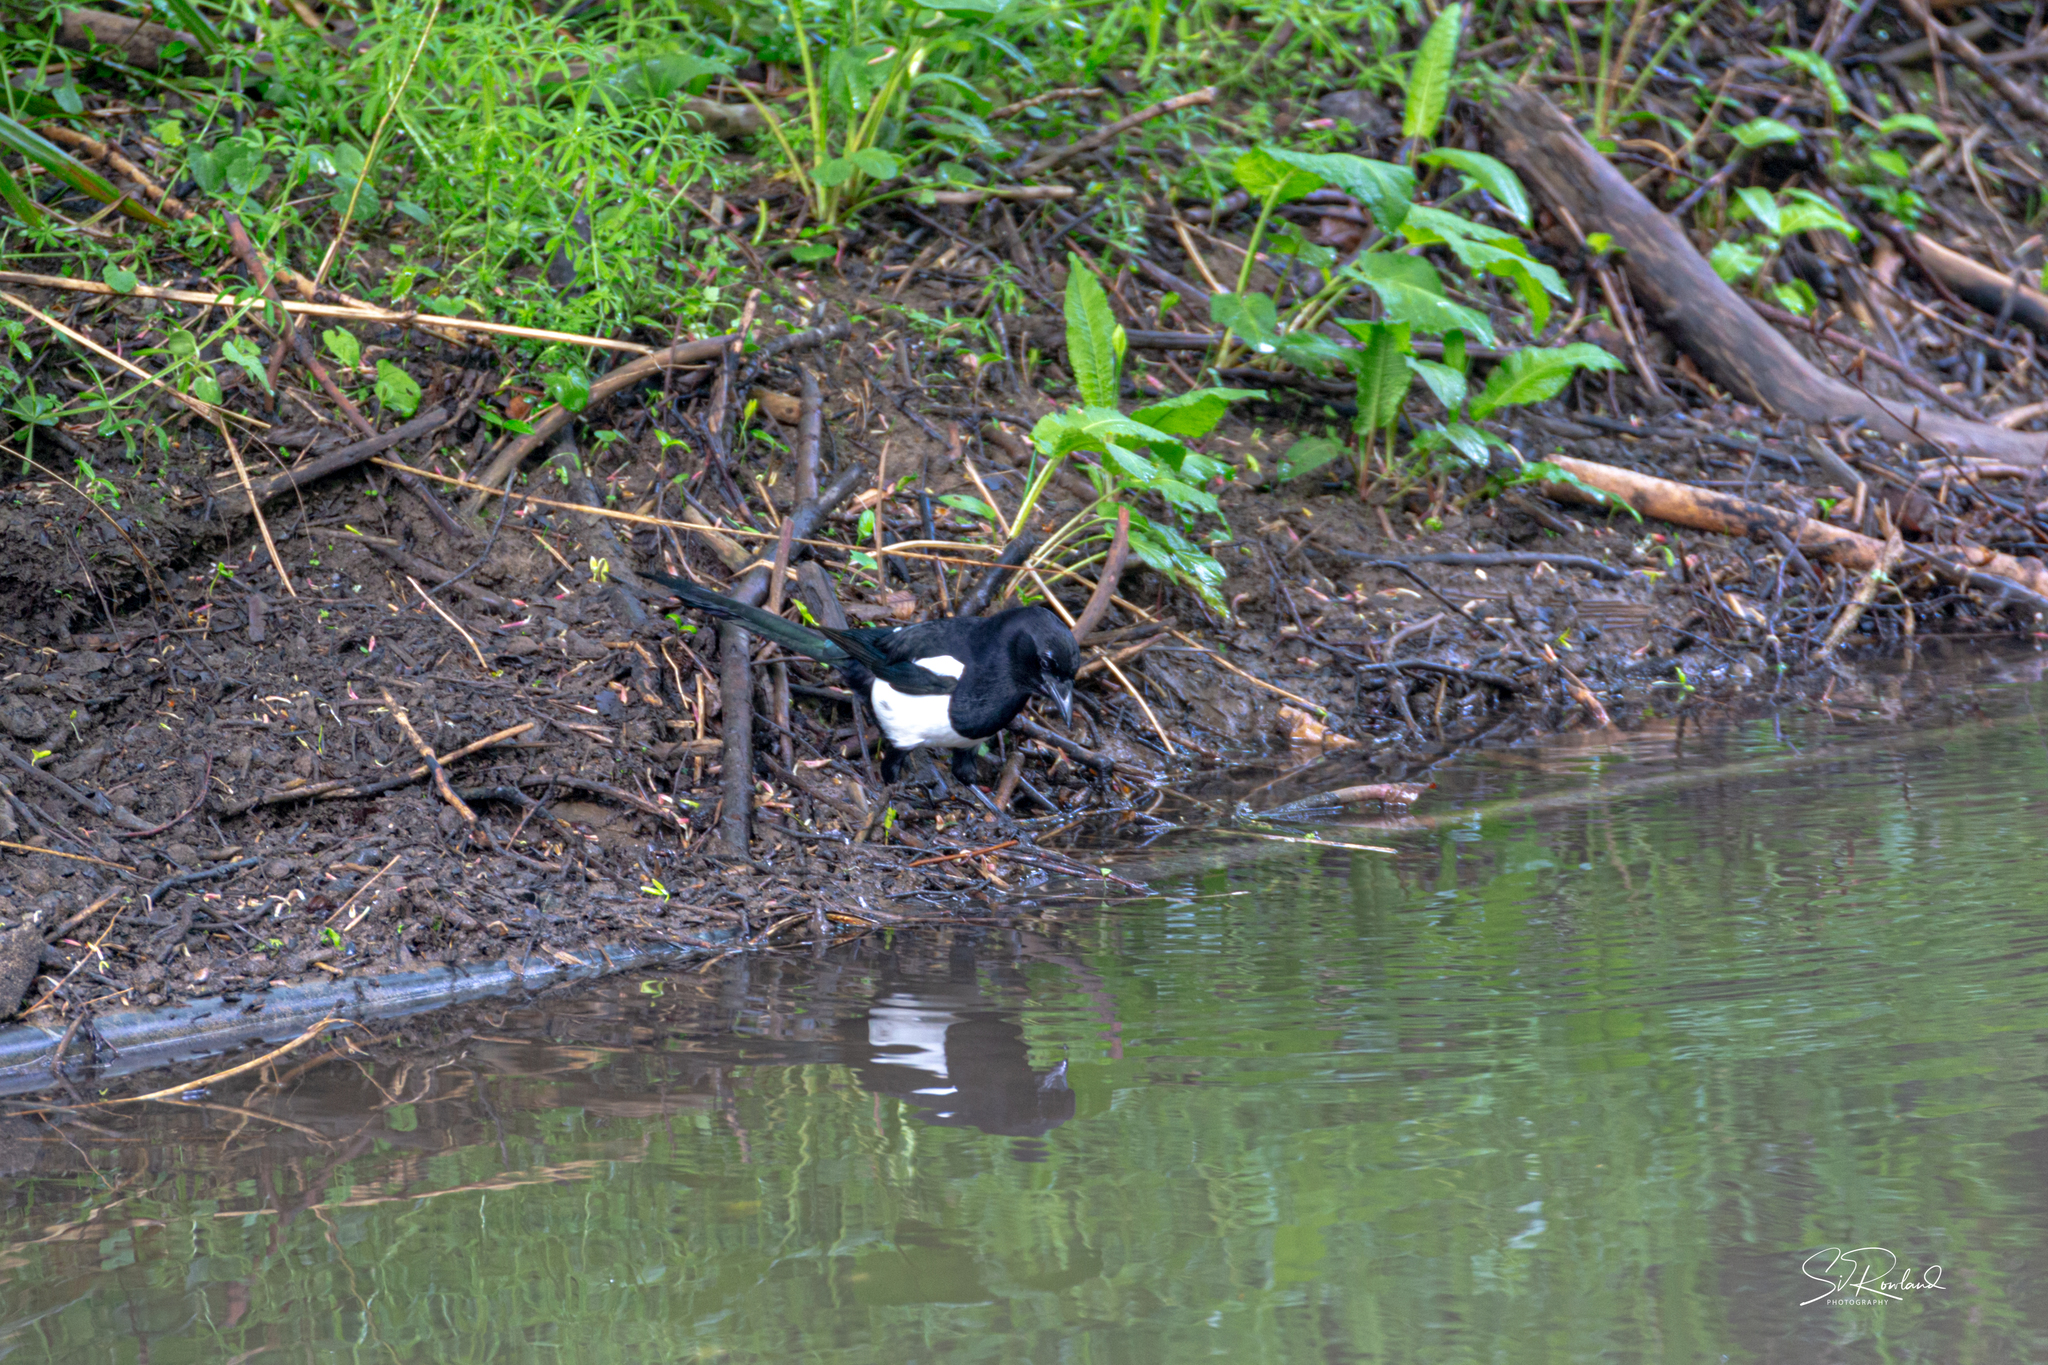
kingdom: Animalia
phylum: Chordata
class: Aves
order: Passeriformes
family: Corvidae
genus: Pica
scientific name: Pica pica
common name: Eurasian magpie
